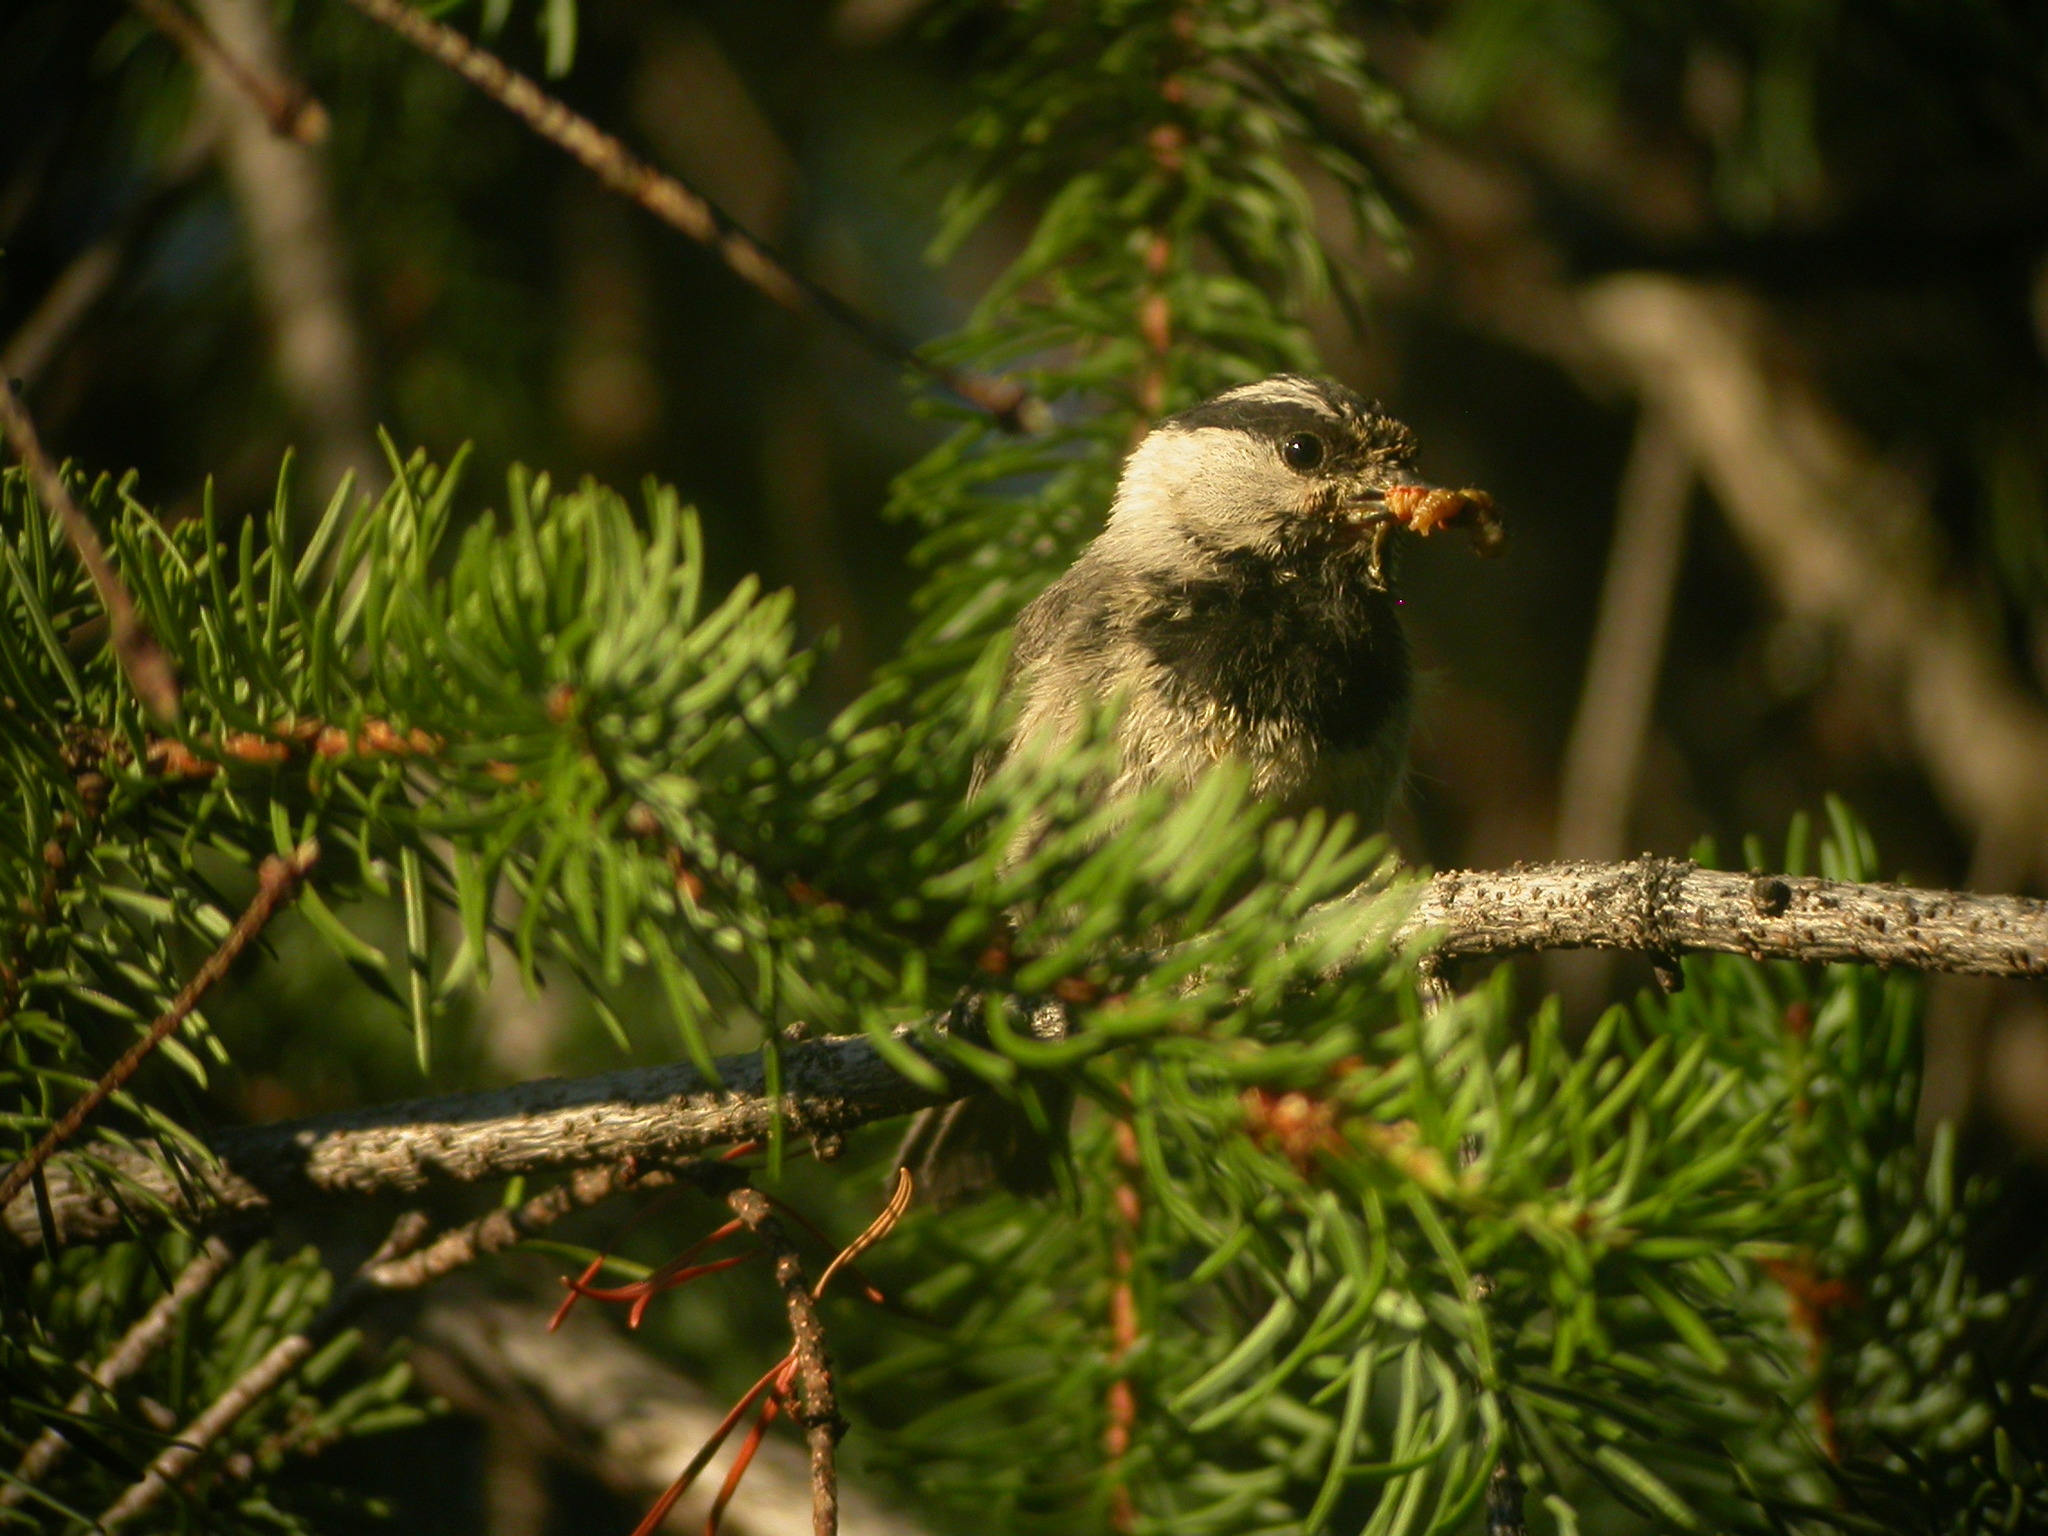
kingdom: Animalia
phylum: Chordata
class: Aves
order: Passeriformes
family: Paridae
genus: Poecile
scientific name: Poecile gambeli
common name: Mountain chickadee
